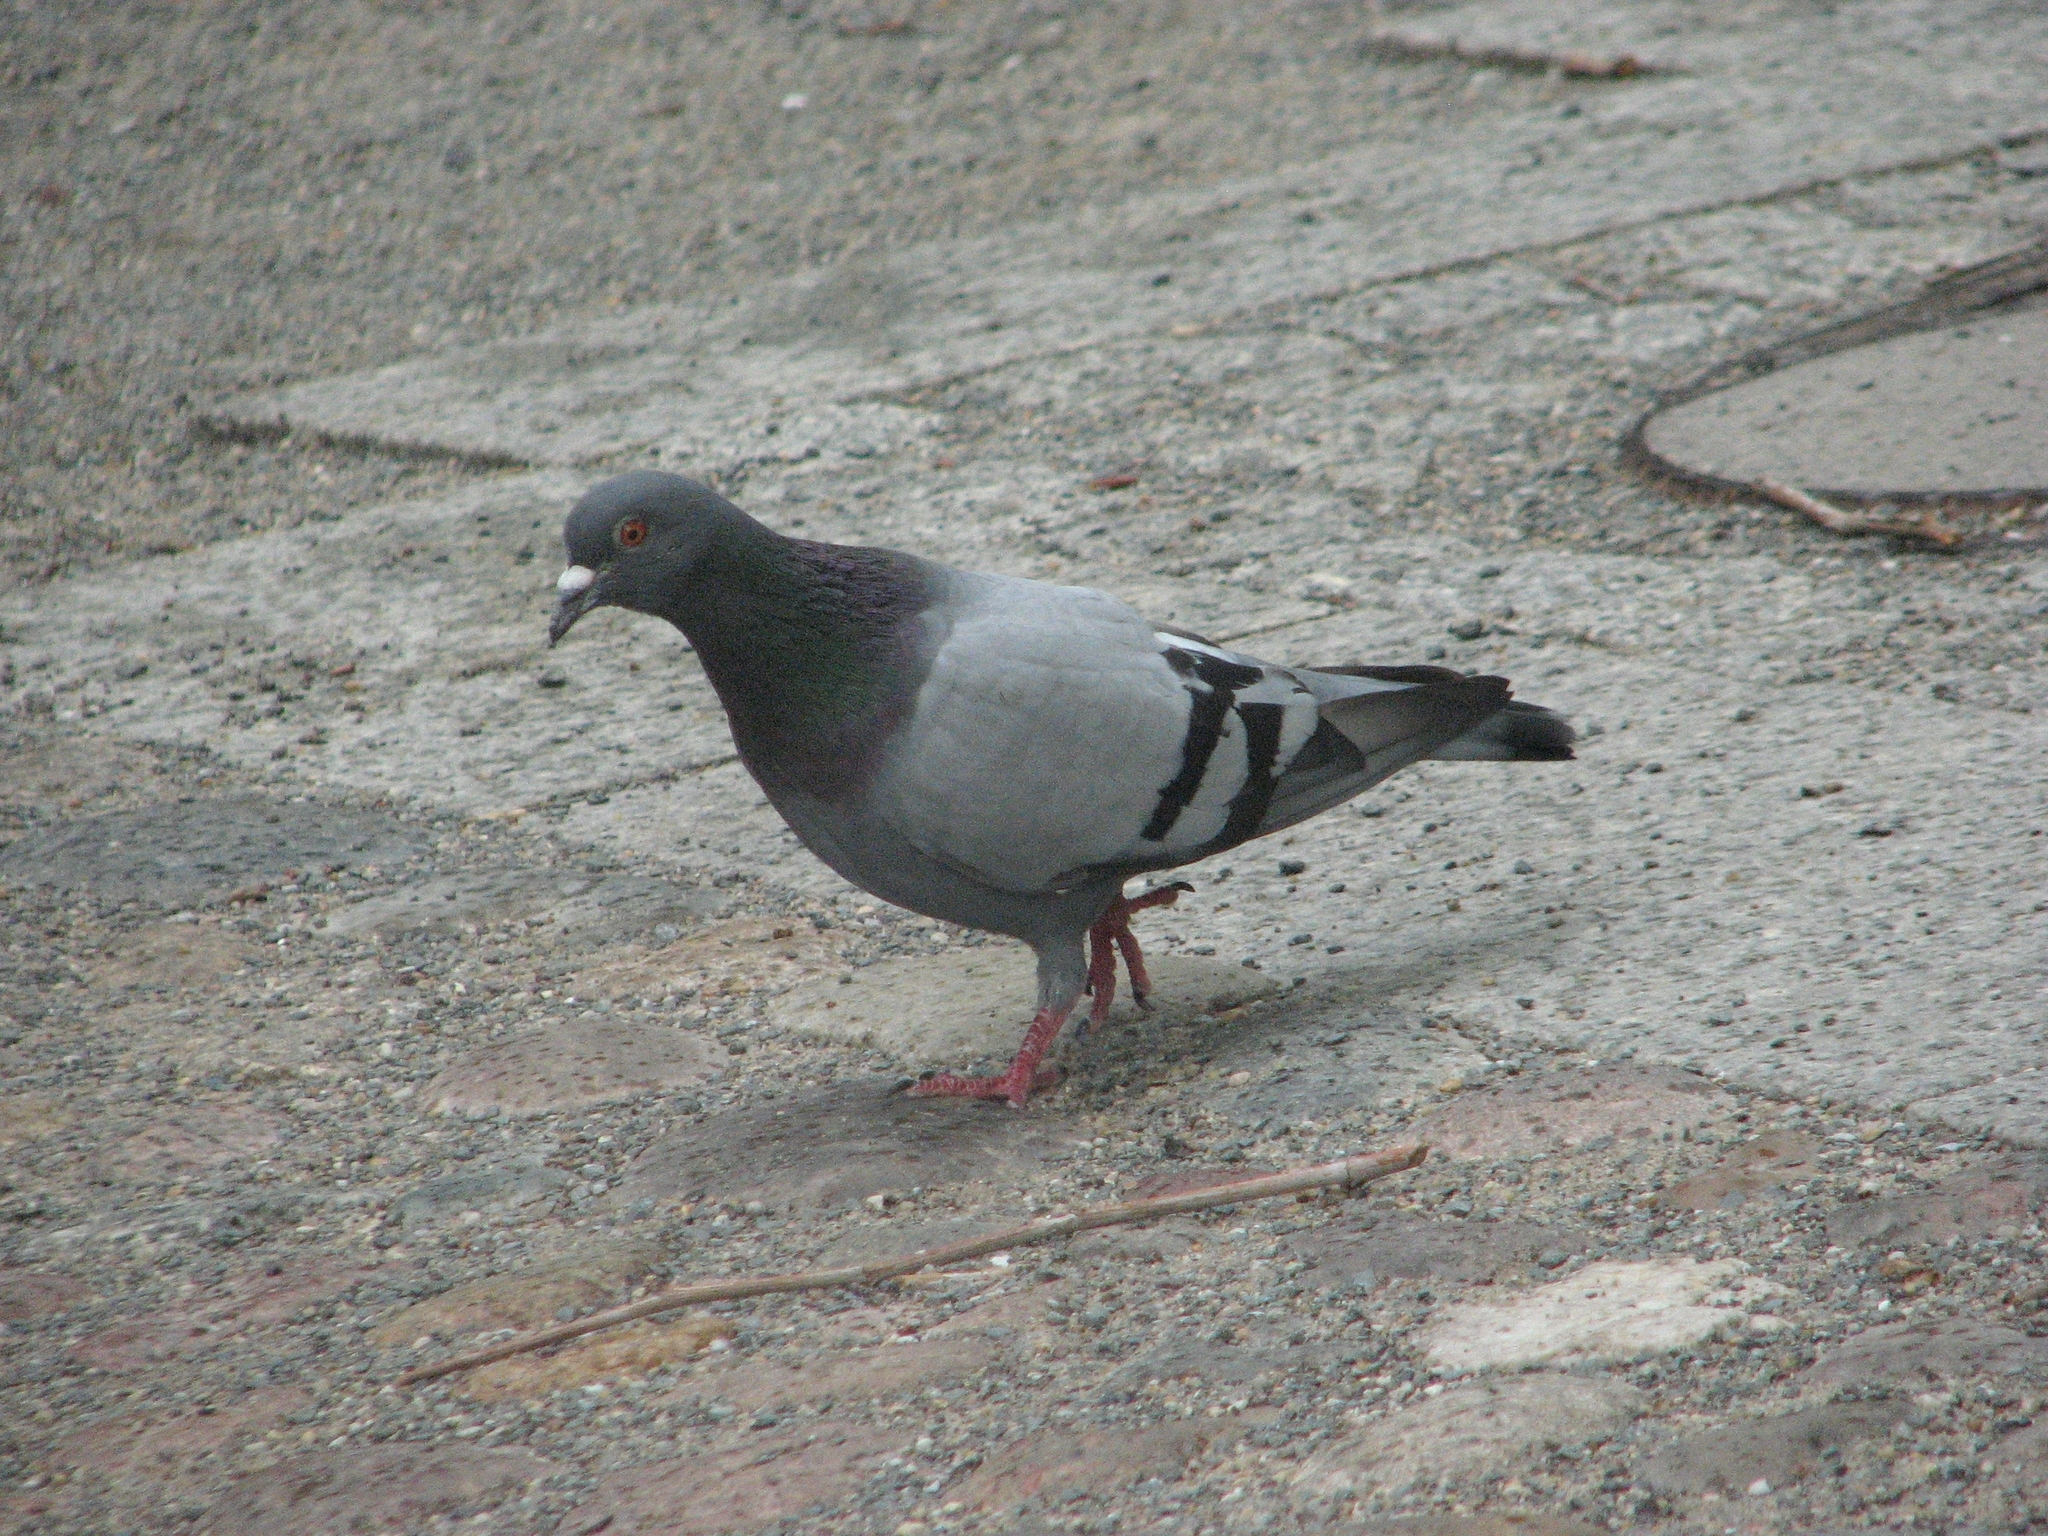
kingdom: Animalia
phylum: Chordata
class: Aves
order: Columbiformes
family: Columbidae
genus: Columba
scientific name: Columba livia
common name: Rock pigeon
